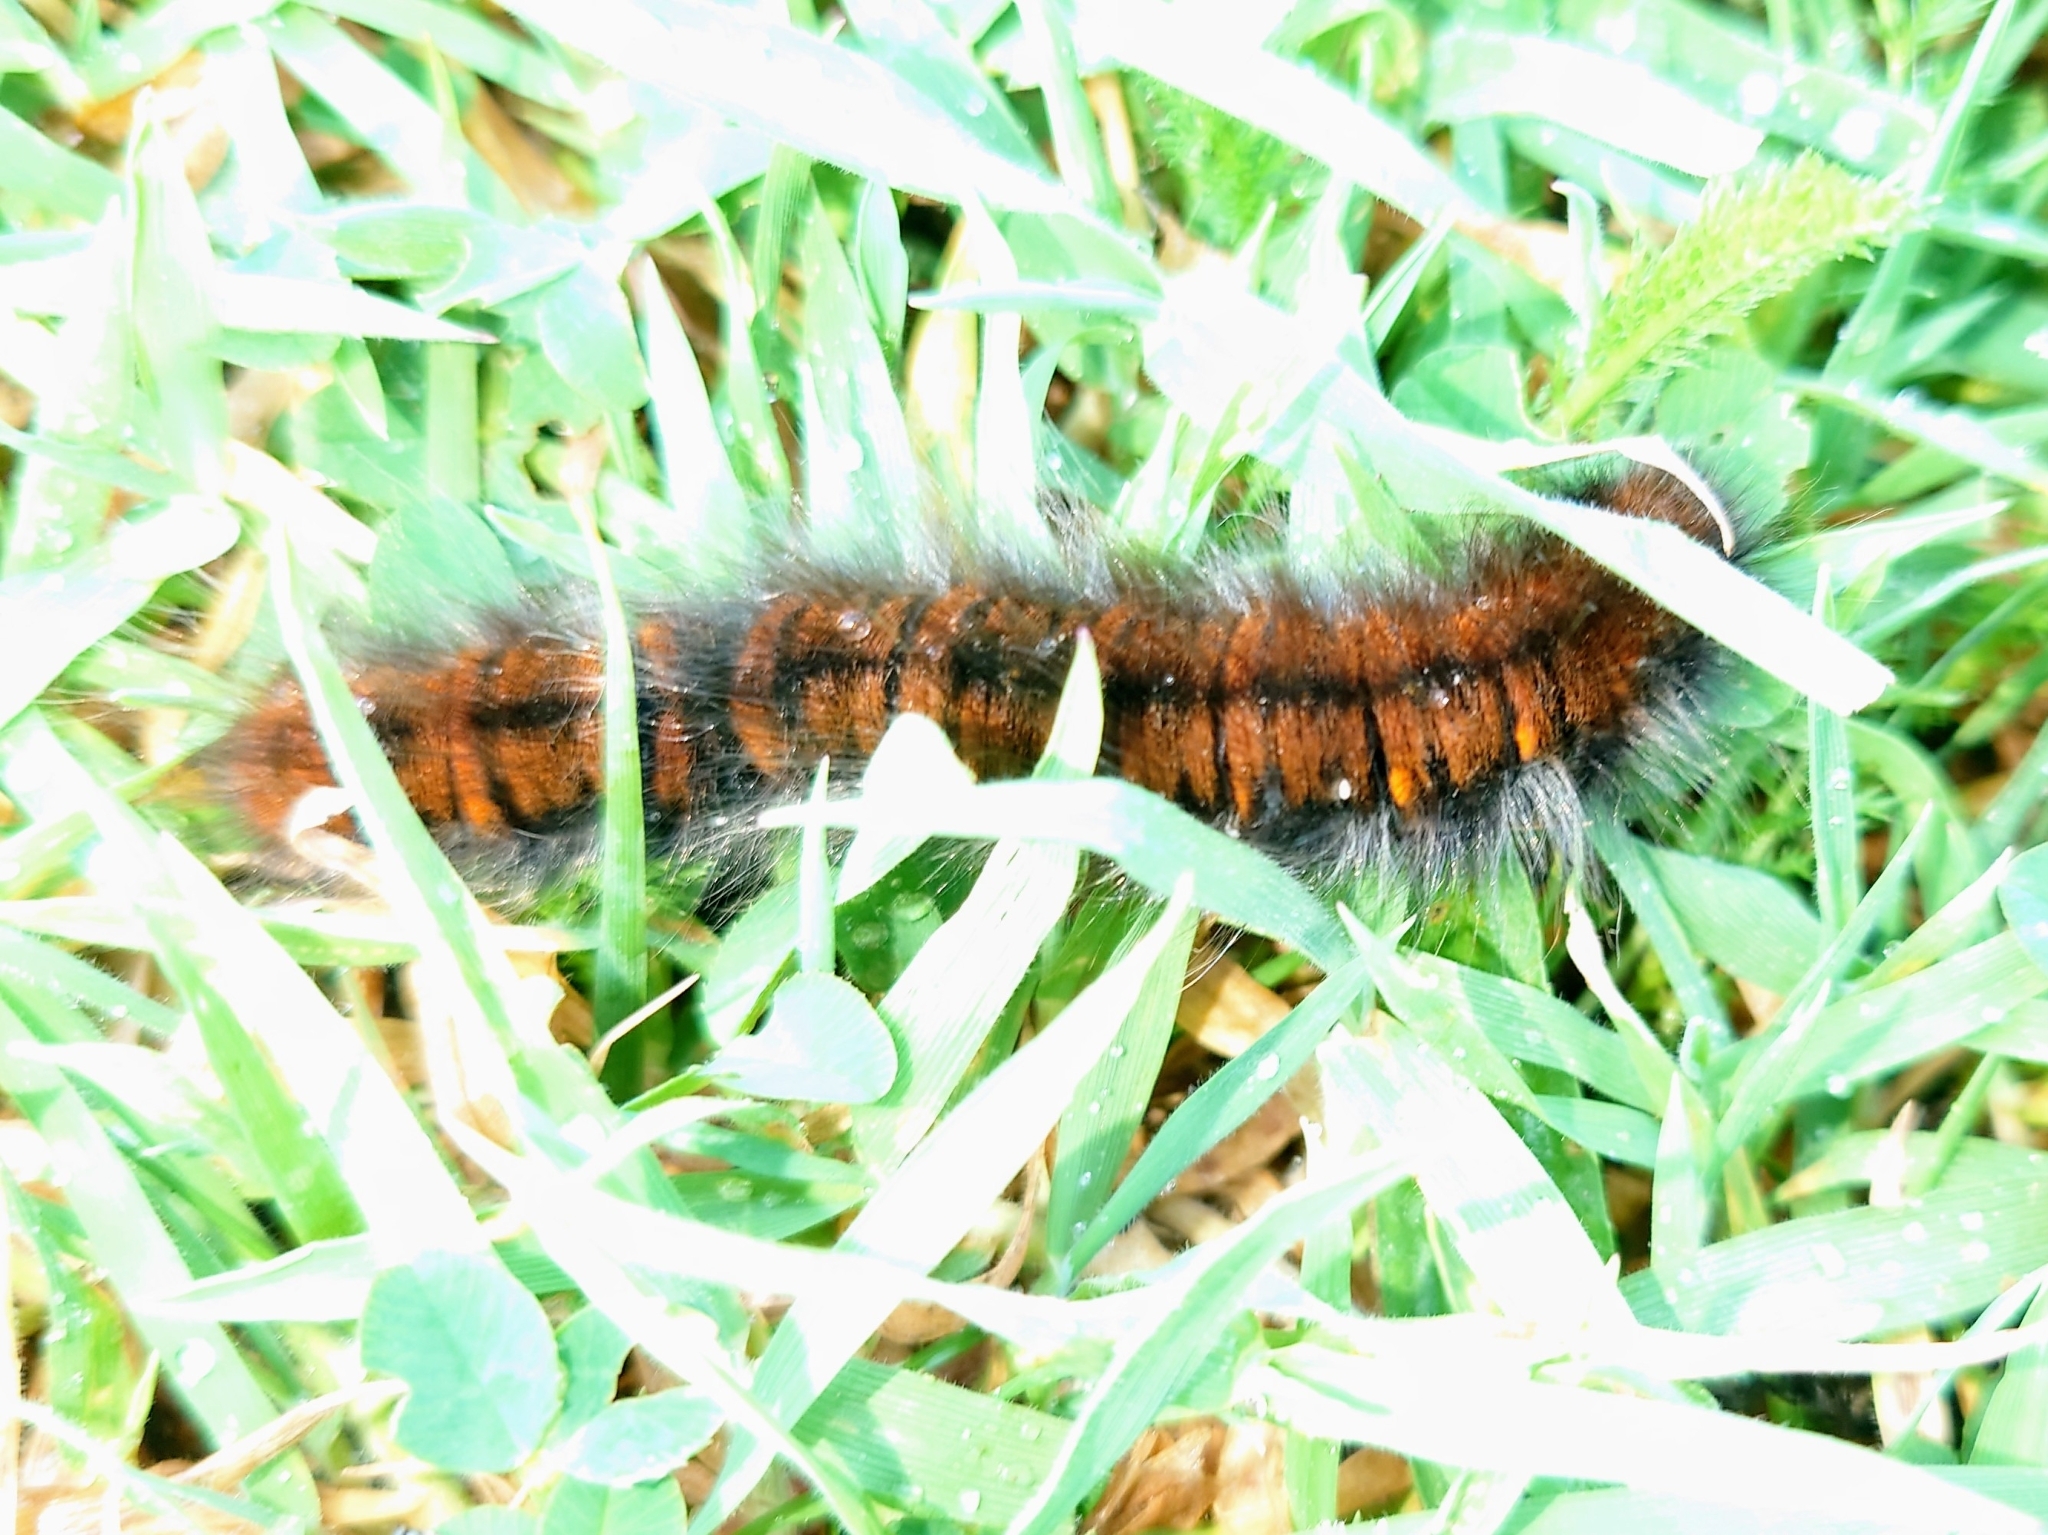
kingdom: Animalia
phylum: Arthropoda
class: Insecta
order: Lepidoptera
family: Lasiocampidae
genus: Macrothylacia
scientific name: Macrothylacia rubi
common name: Fox moth
